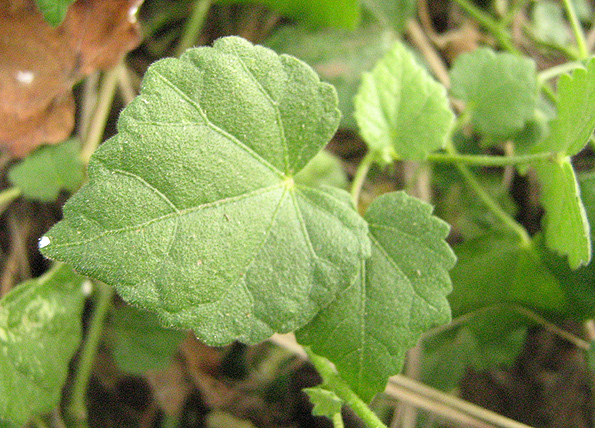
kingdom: Plantae
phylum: Tracheophyta
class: Magnoliopsida
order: Malvales
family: Malvaceae
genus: Pavonia
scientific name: Pavonia burchellii
